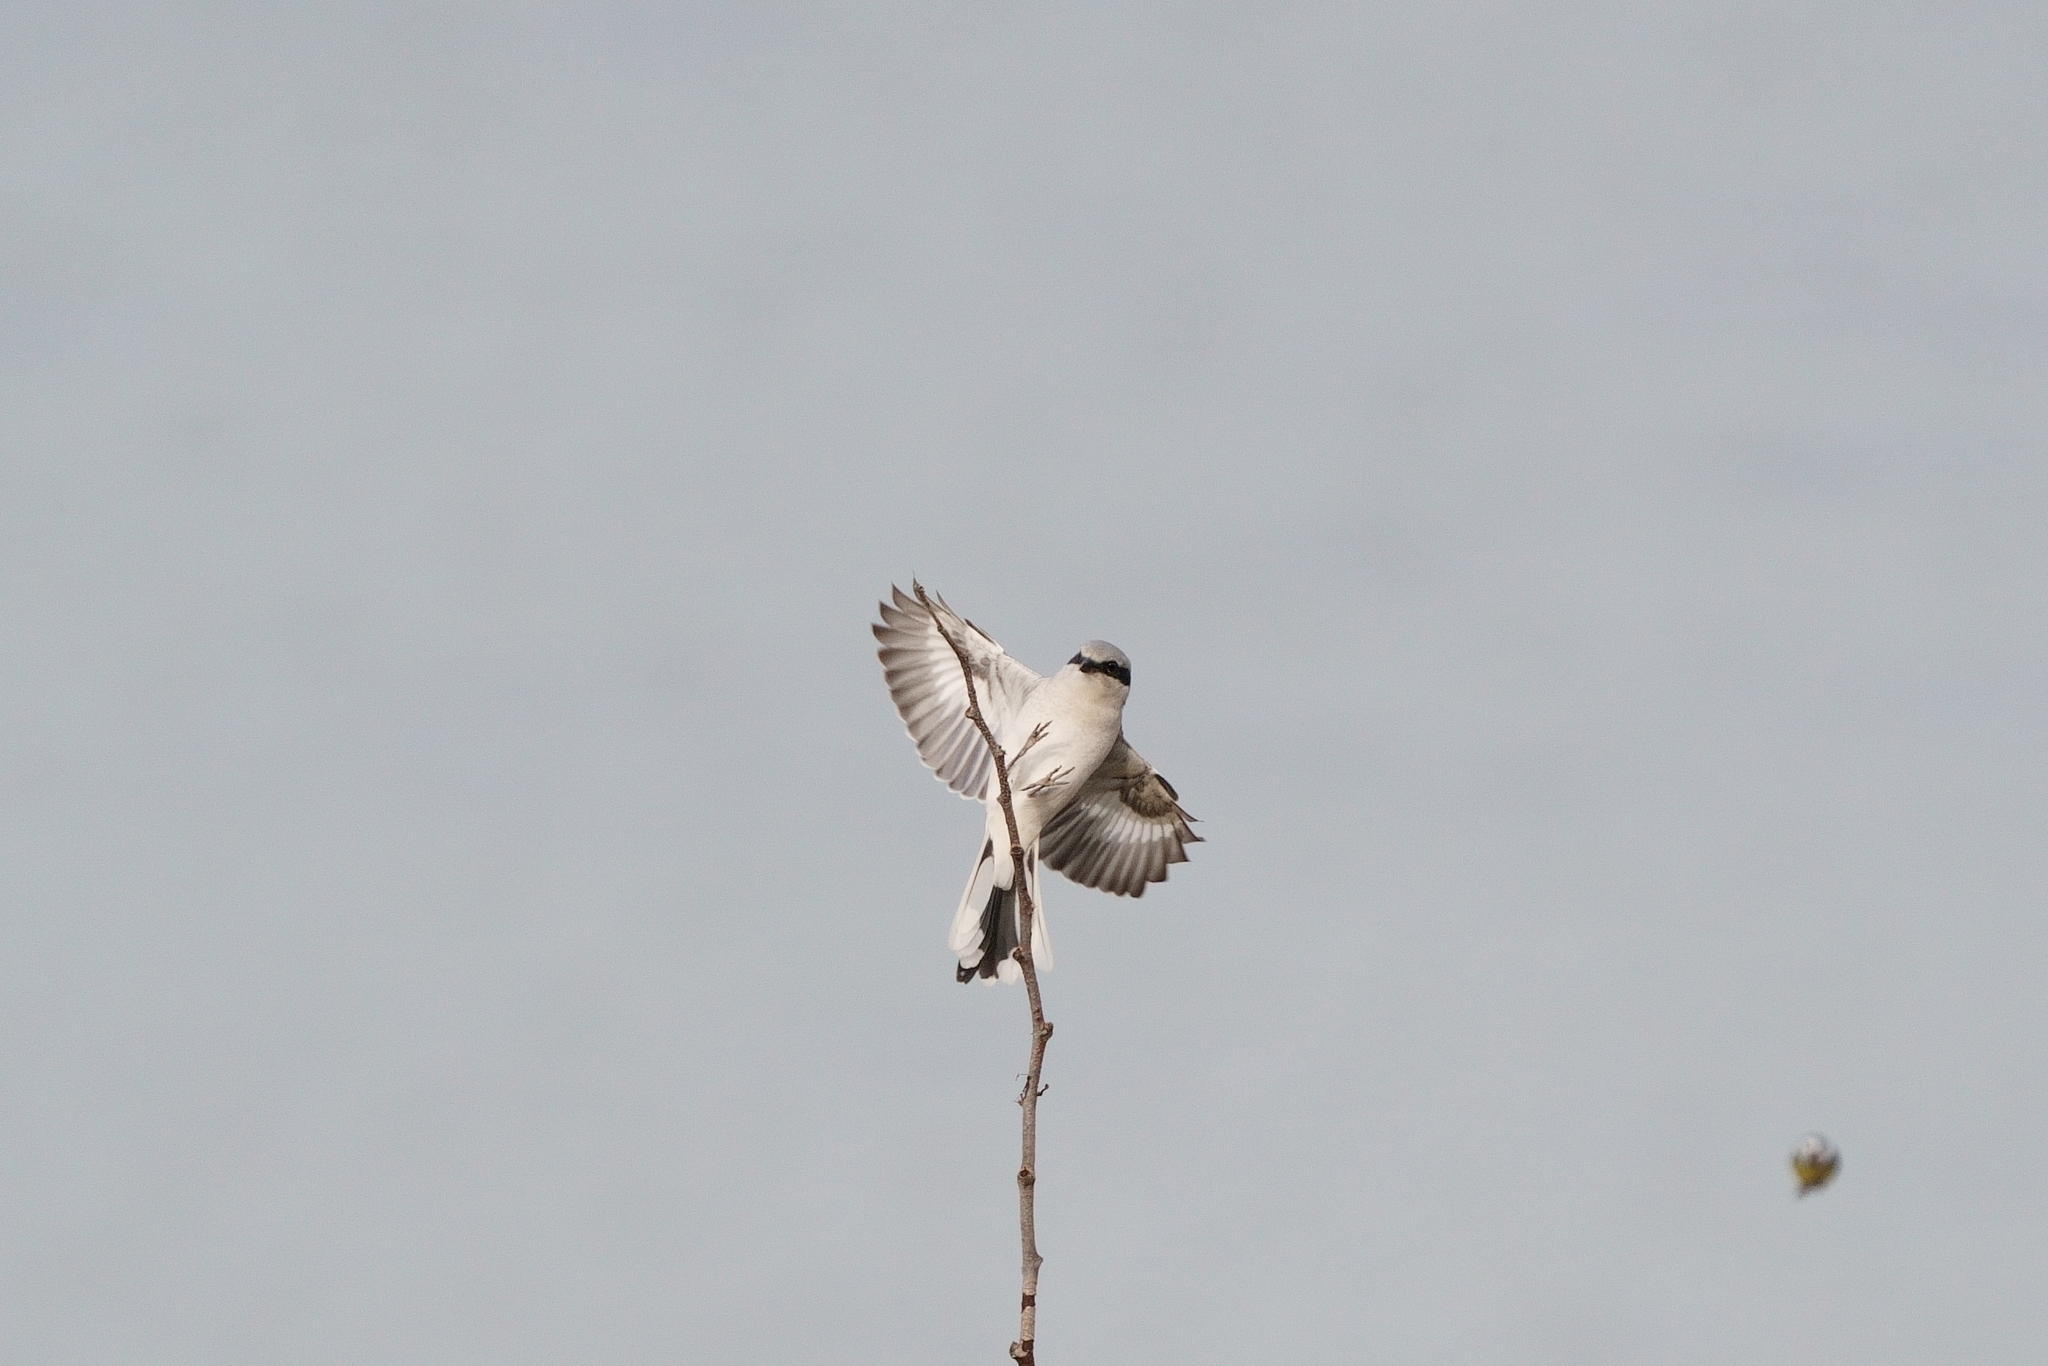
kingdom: Animalia
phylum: Chordata
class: Aves
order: Passeriformes
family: Laniidae
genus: Lanius
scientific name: Lanius excubitor
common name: Great grey shrike
